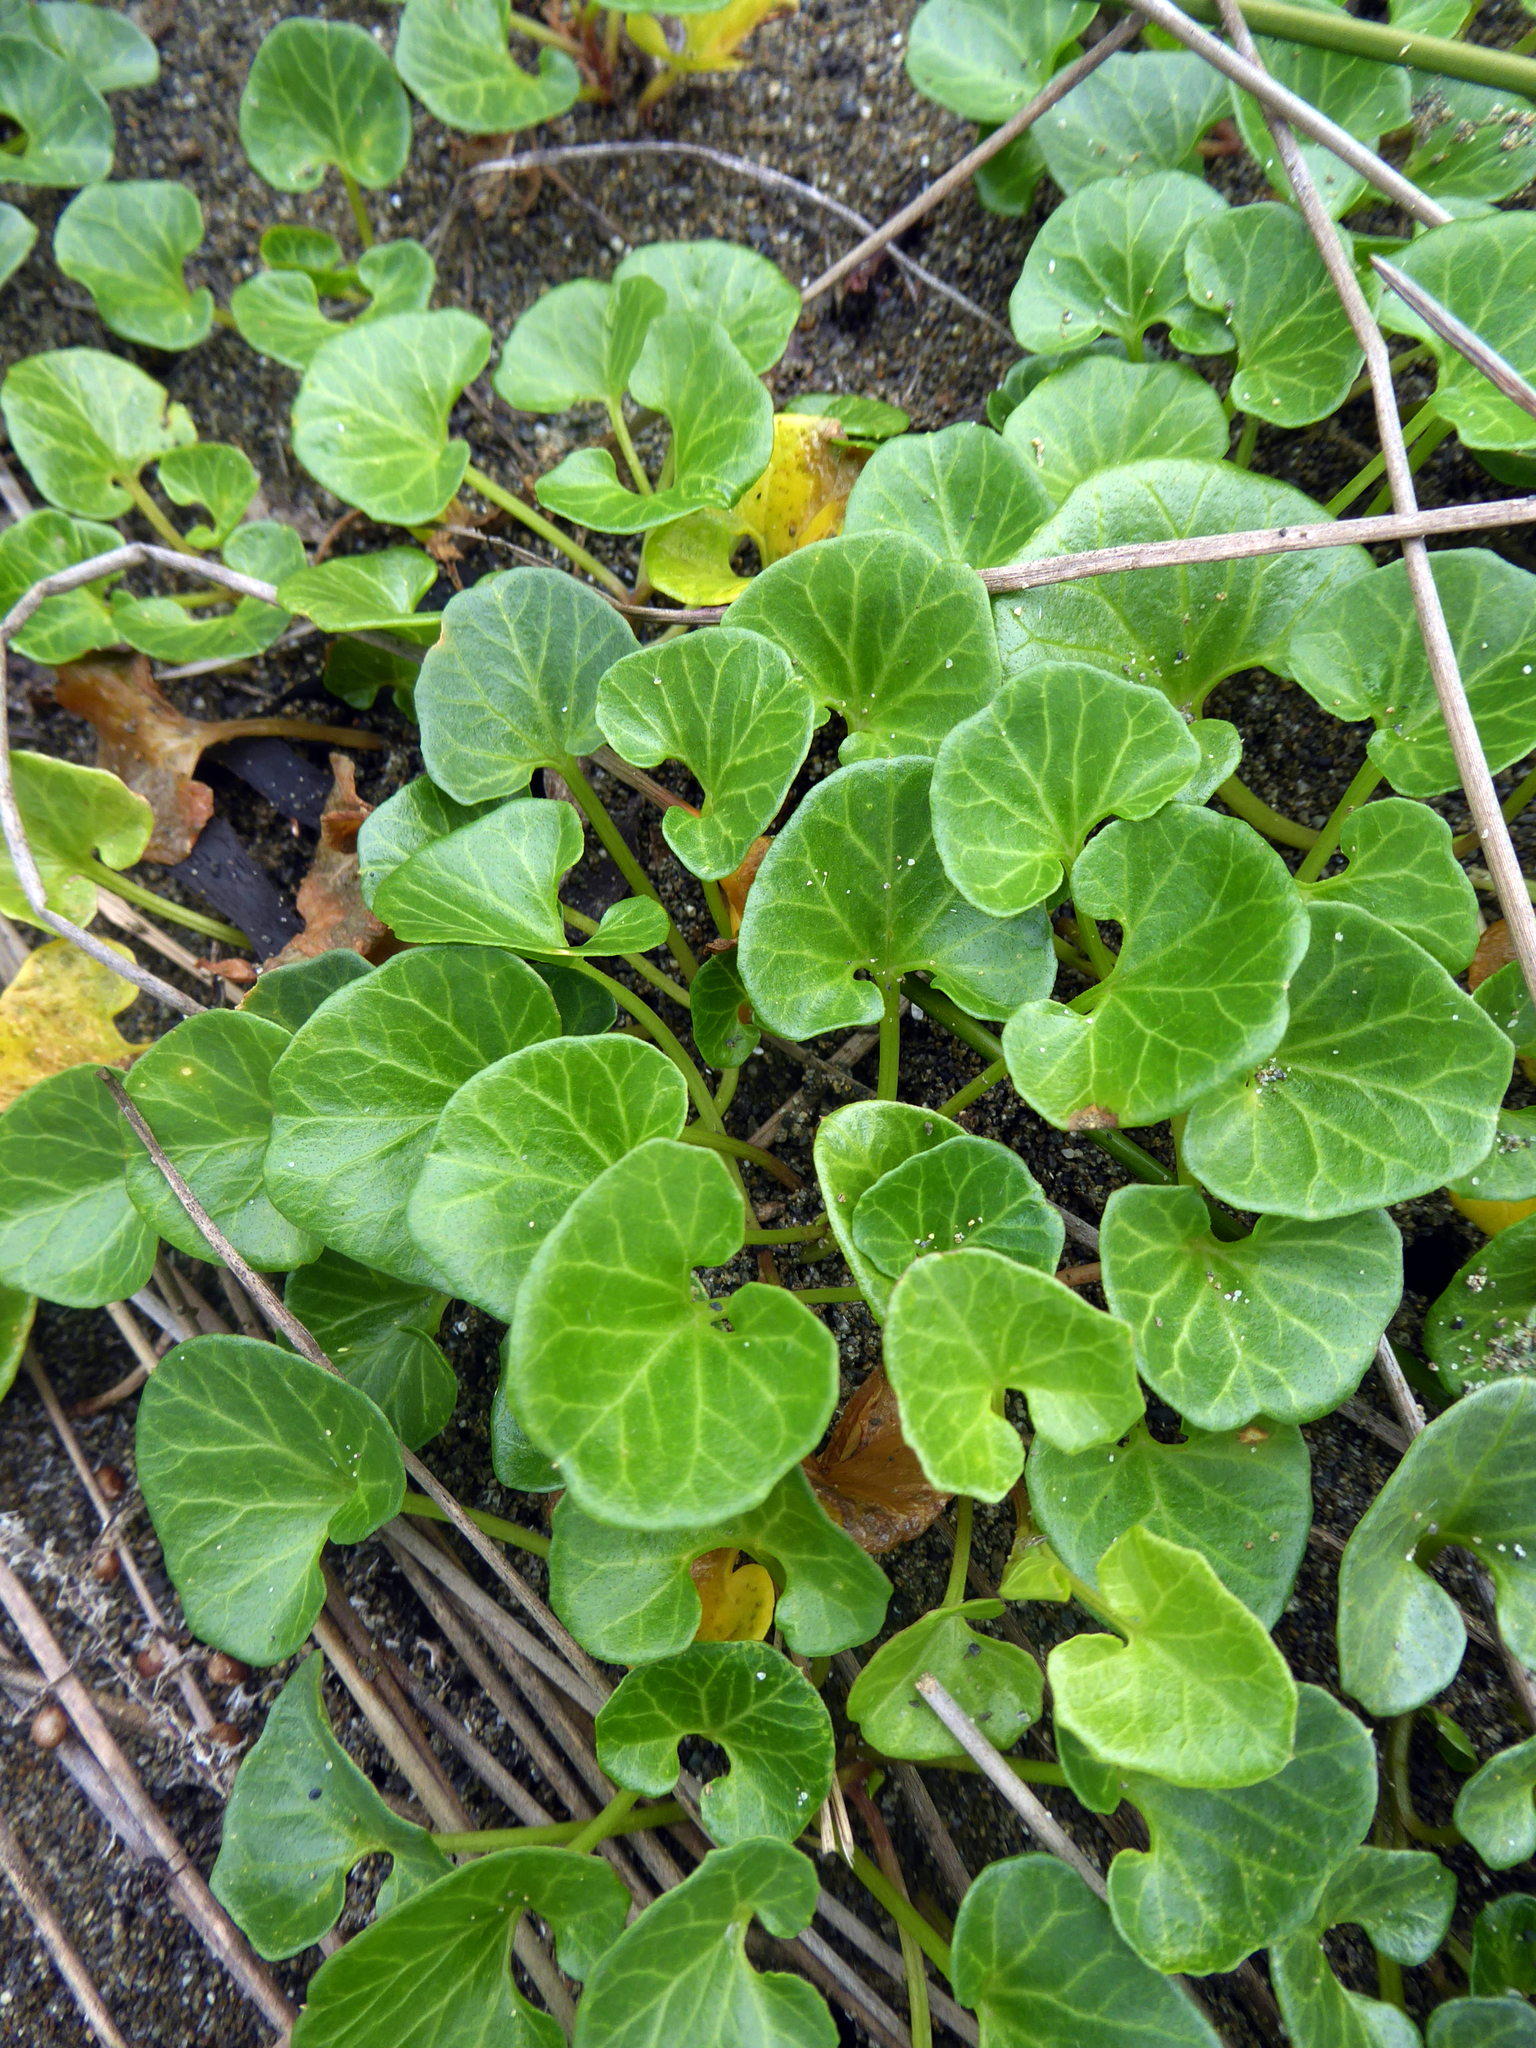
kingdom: Plantae
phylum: Tracheophyta
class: Magnoliopsida
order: Solanales
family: Convolvulaceae
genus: Calystegia
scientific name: Calystegia soldanella
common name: Sea bindweed
